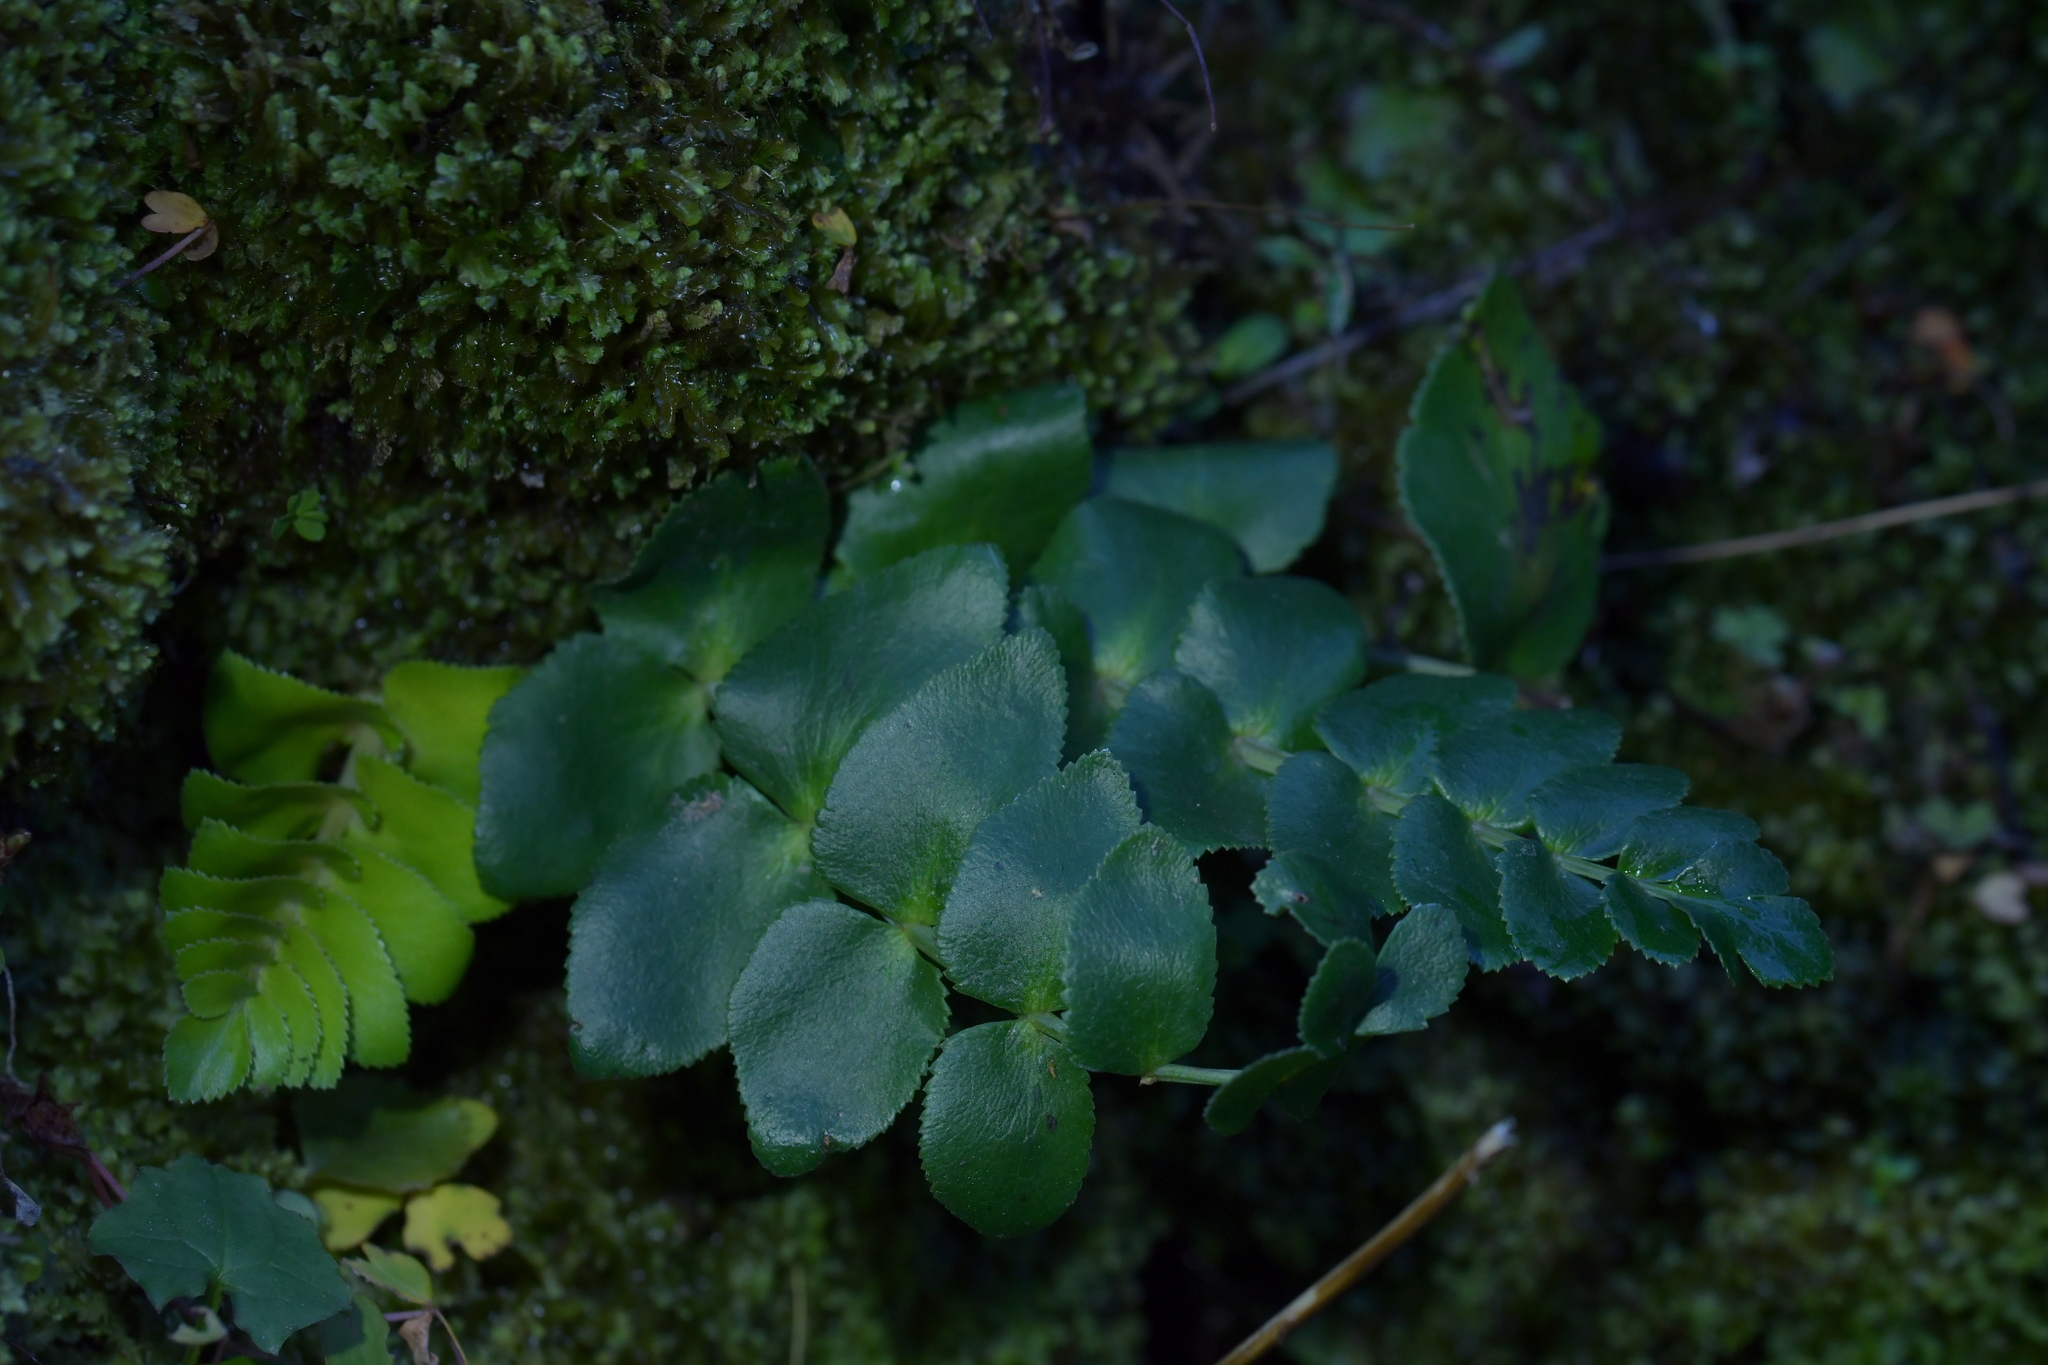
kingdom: Plantae
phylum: Tracheophyta
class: Magnoliopsida
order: Apiales
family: Apiaceae
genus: Gingidia
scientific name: Gingidia montana
